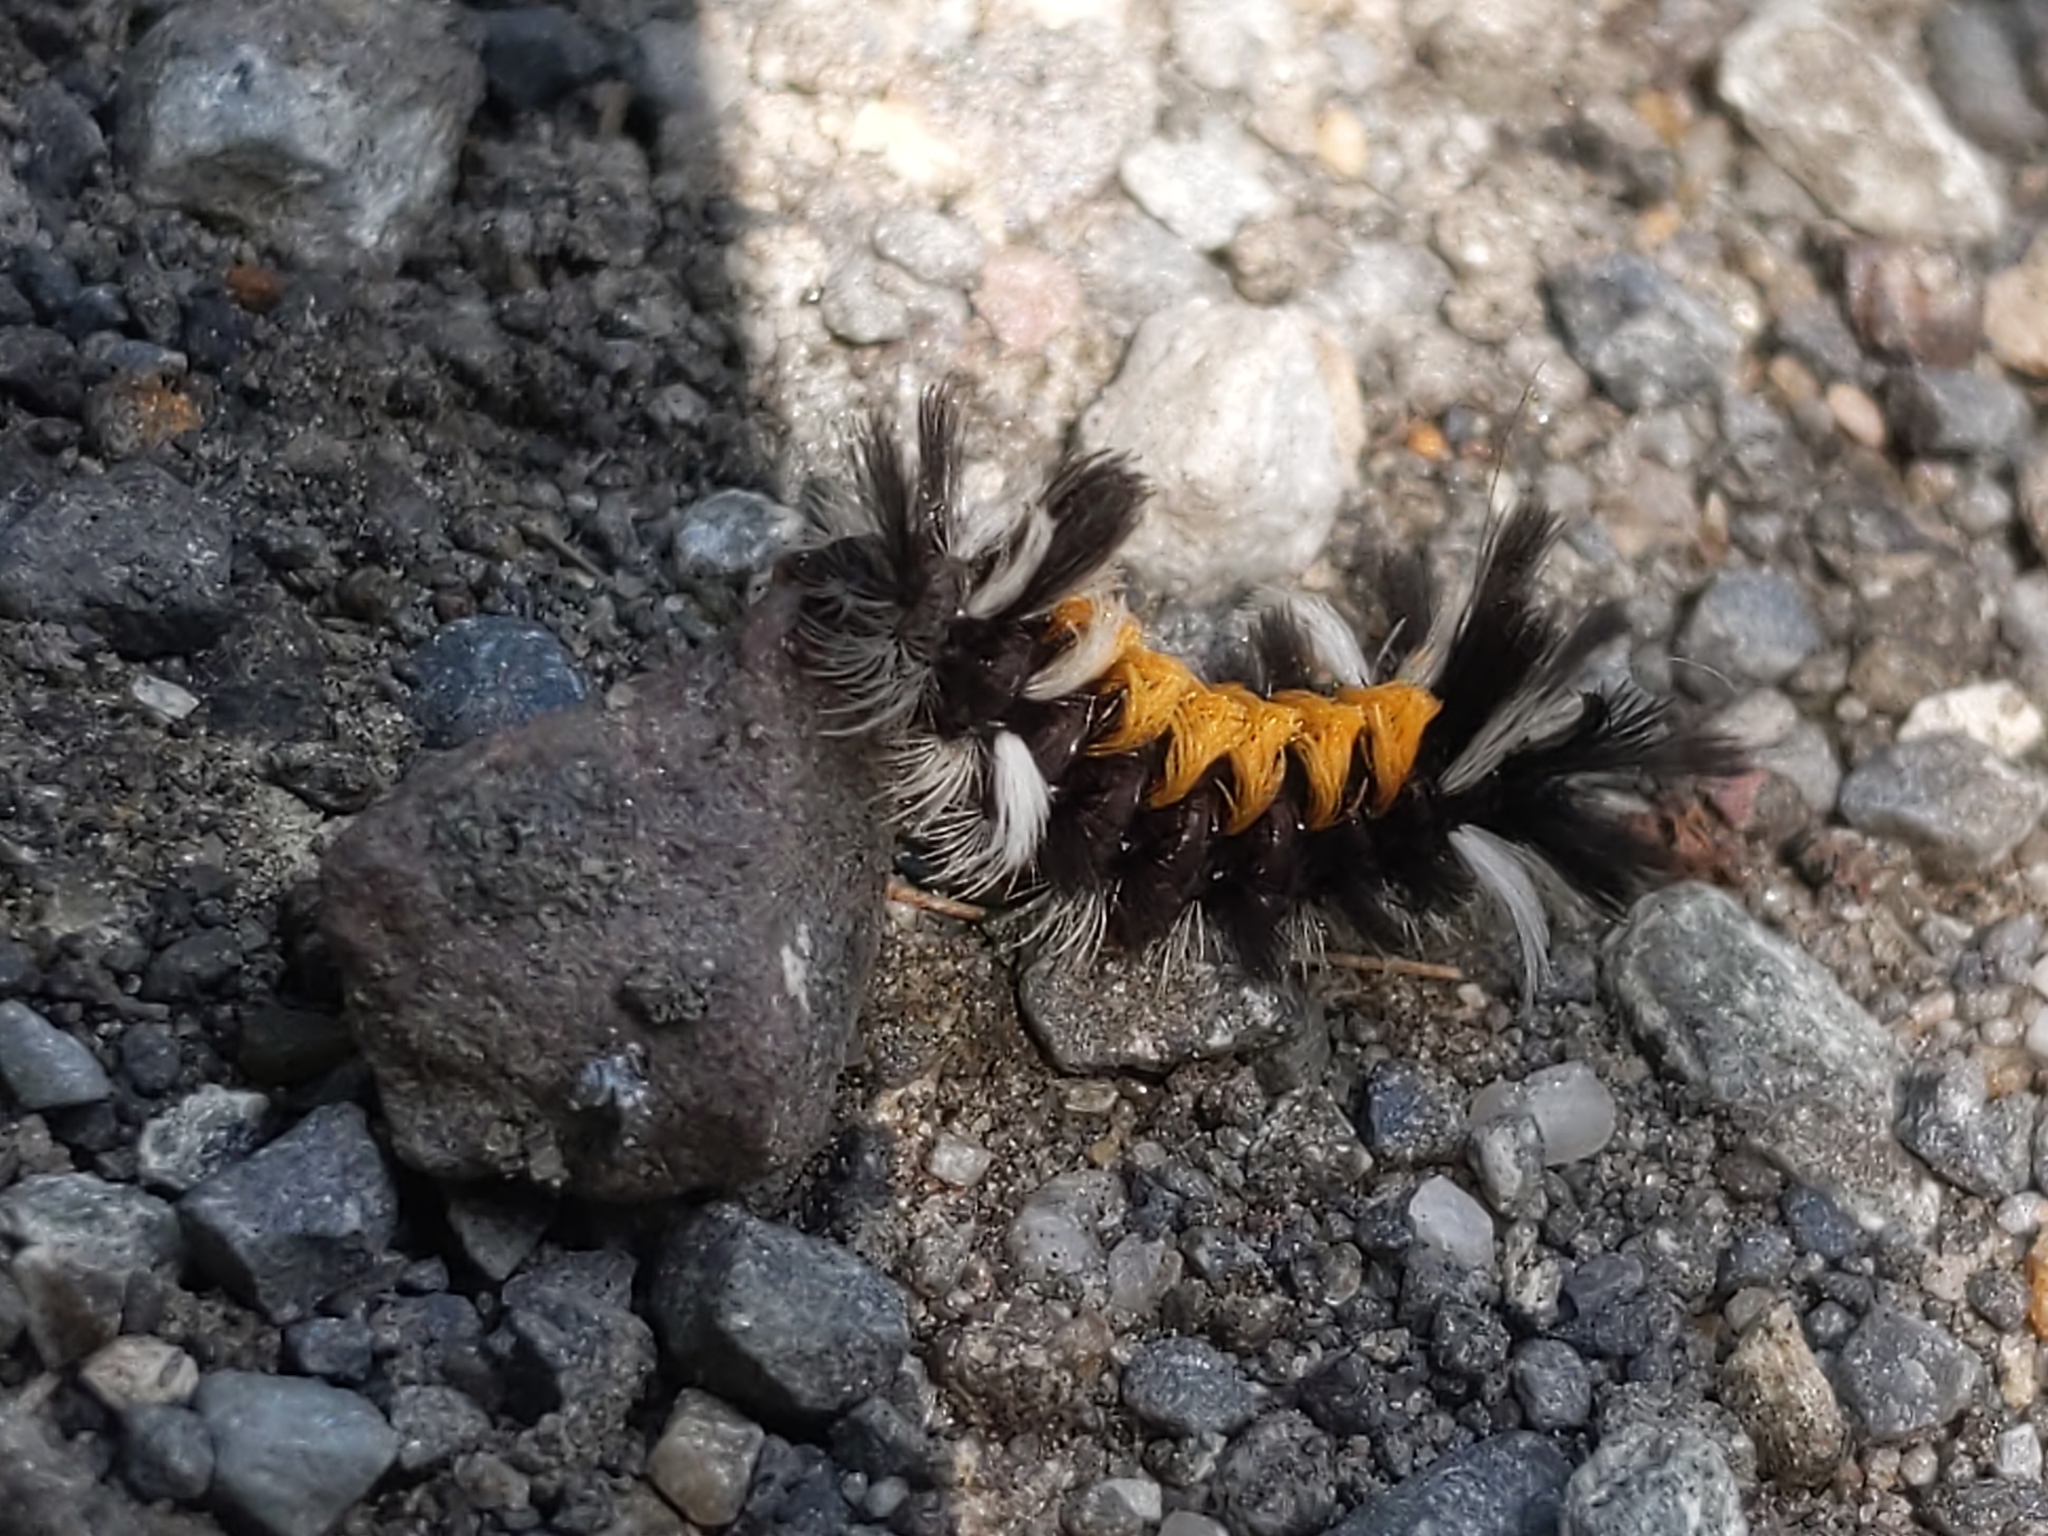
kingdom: Animalia
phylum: Arthropoda
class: Insecta
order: Lepidoptera
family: Erebidae
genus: Euchaetes
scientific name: Euchaetes egle
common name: Milkweed tussock moth
